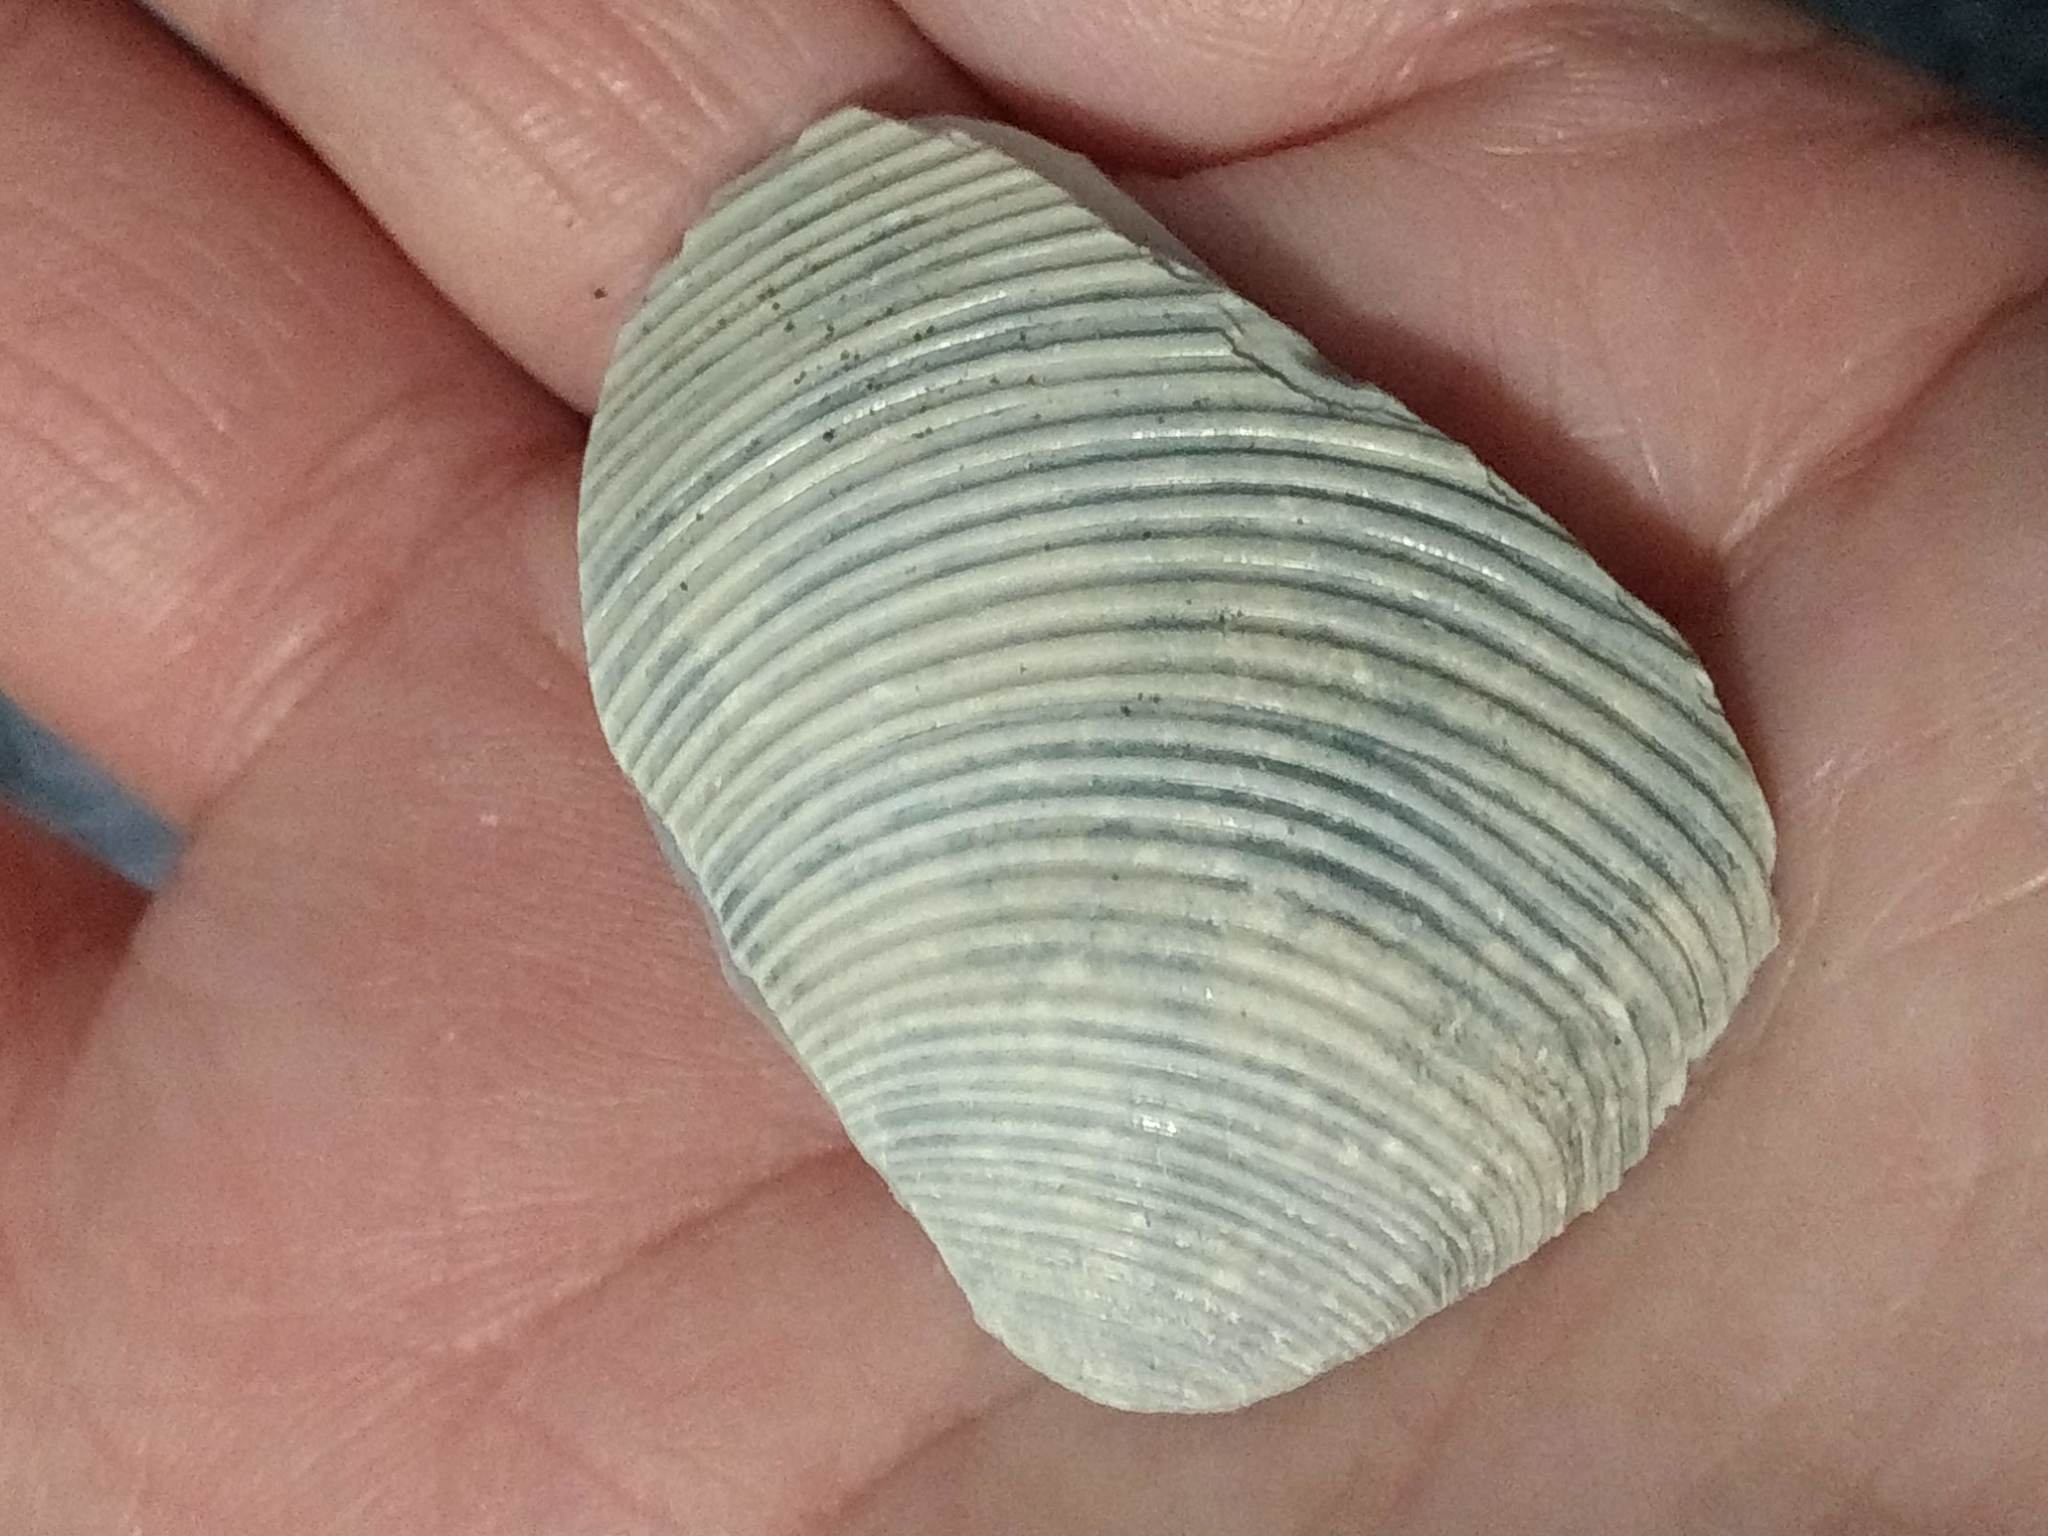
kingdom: Animalia
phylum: Mollusca
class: Bivalvia
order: Venerida
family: Veneridae
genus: Amiantis
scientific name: Amiantis callosa
